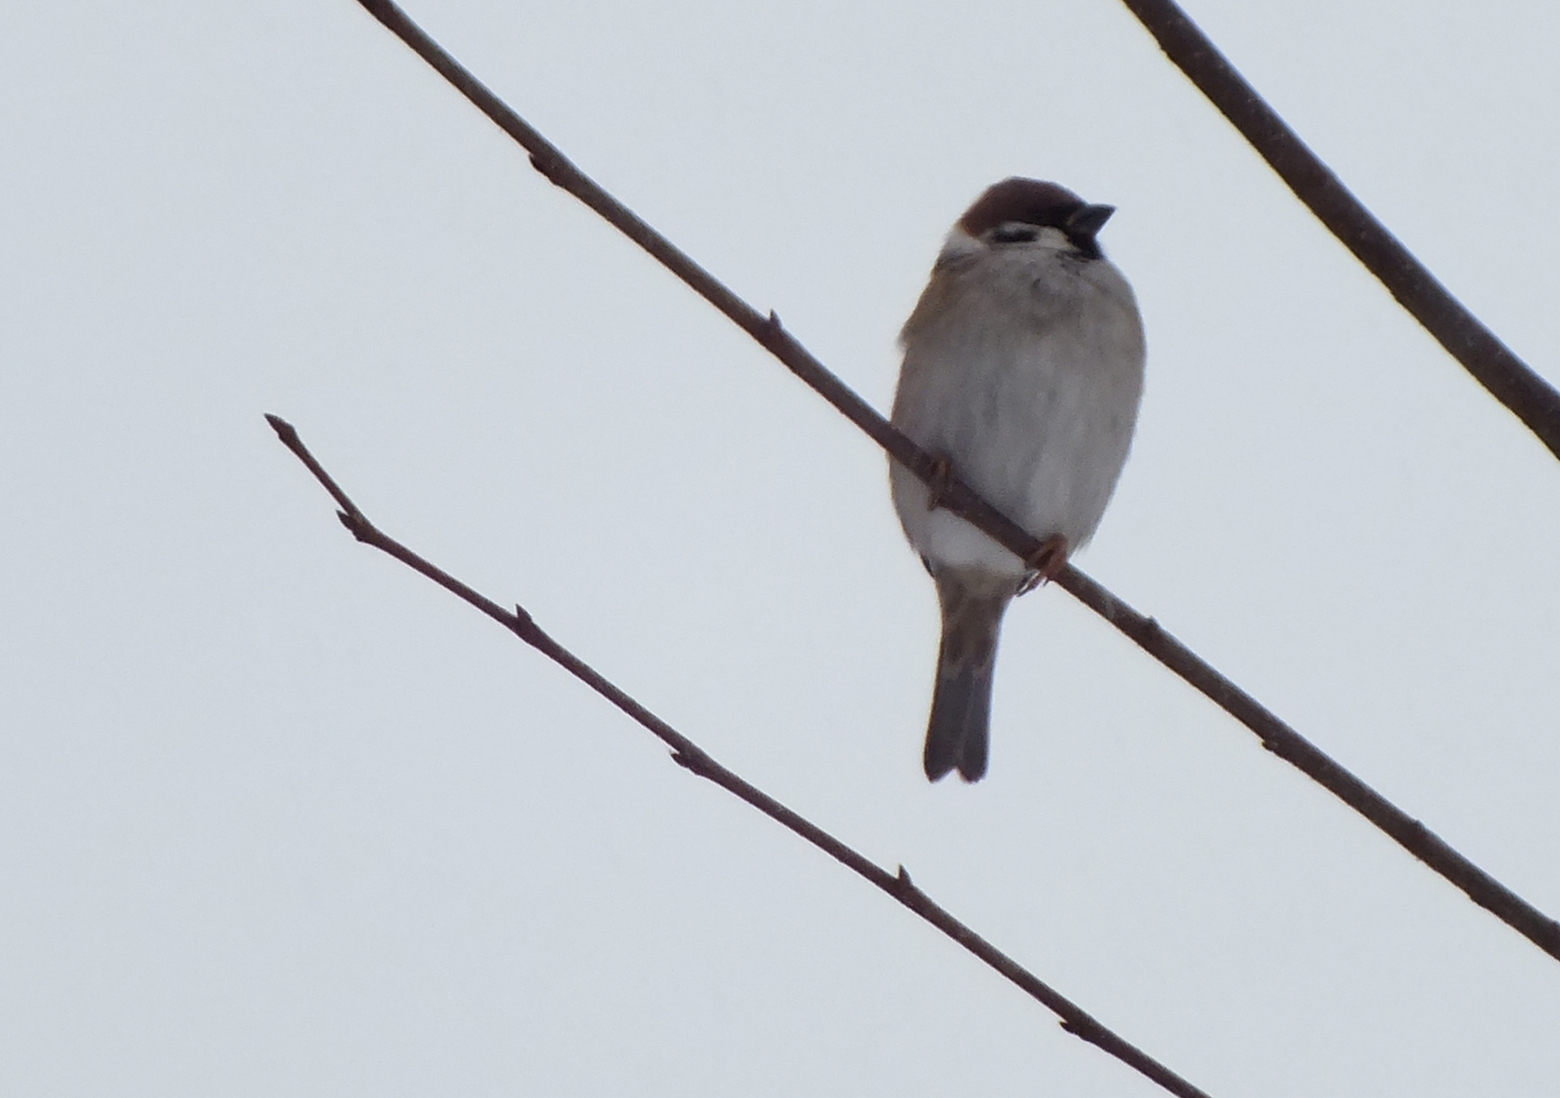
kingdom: Animalia
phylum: Chordata
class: Aves
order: Passeriformes
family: Passeridae
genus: Passer
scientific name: Passer montanus
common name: Eurasian tree sparrow
